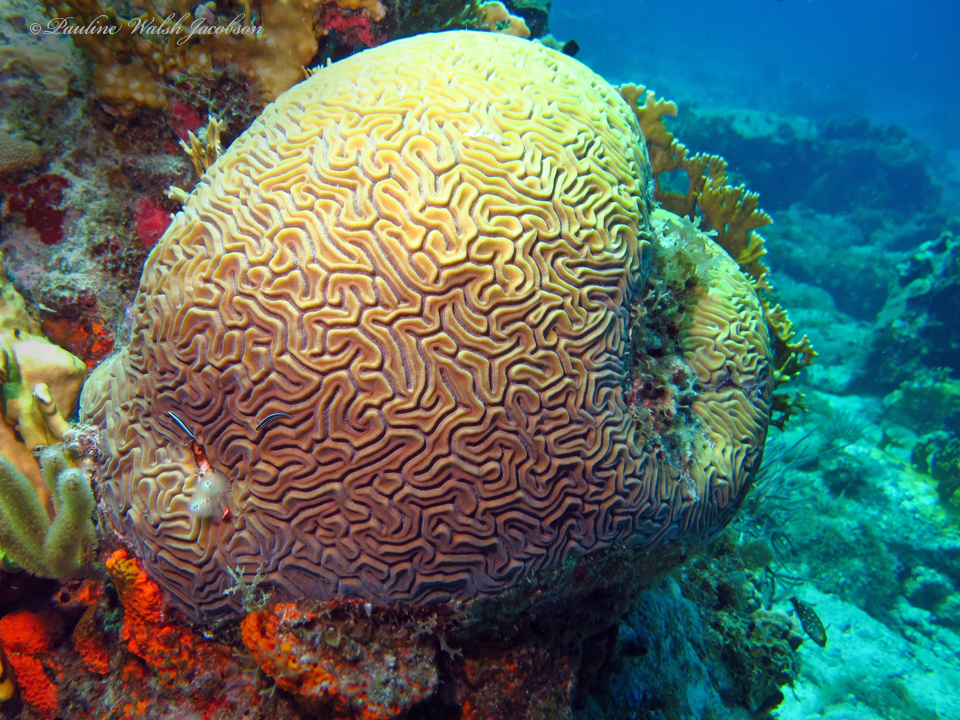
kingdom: Animalia
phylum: Cnidaria
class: Anthozoa
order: Scleractinia
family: Faviidae
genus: Diploria
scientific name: Diploria labyrinthiformis
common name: Grooved brain coral
